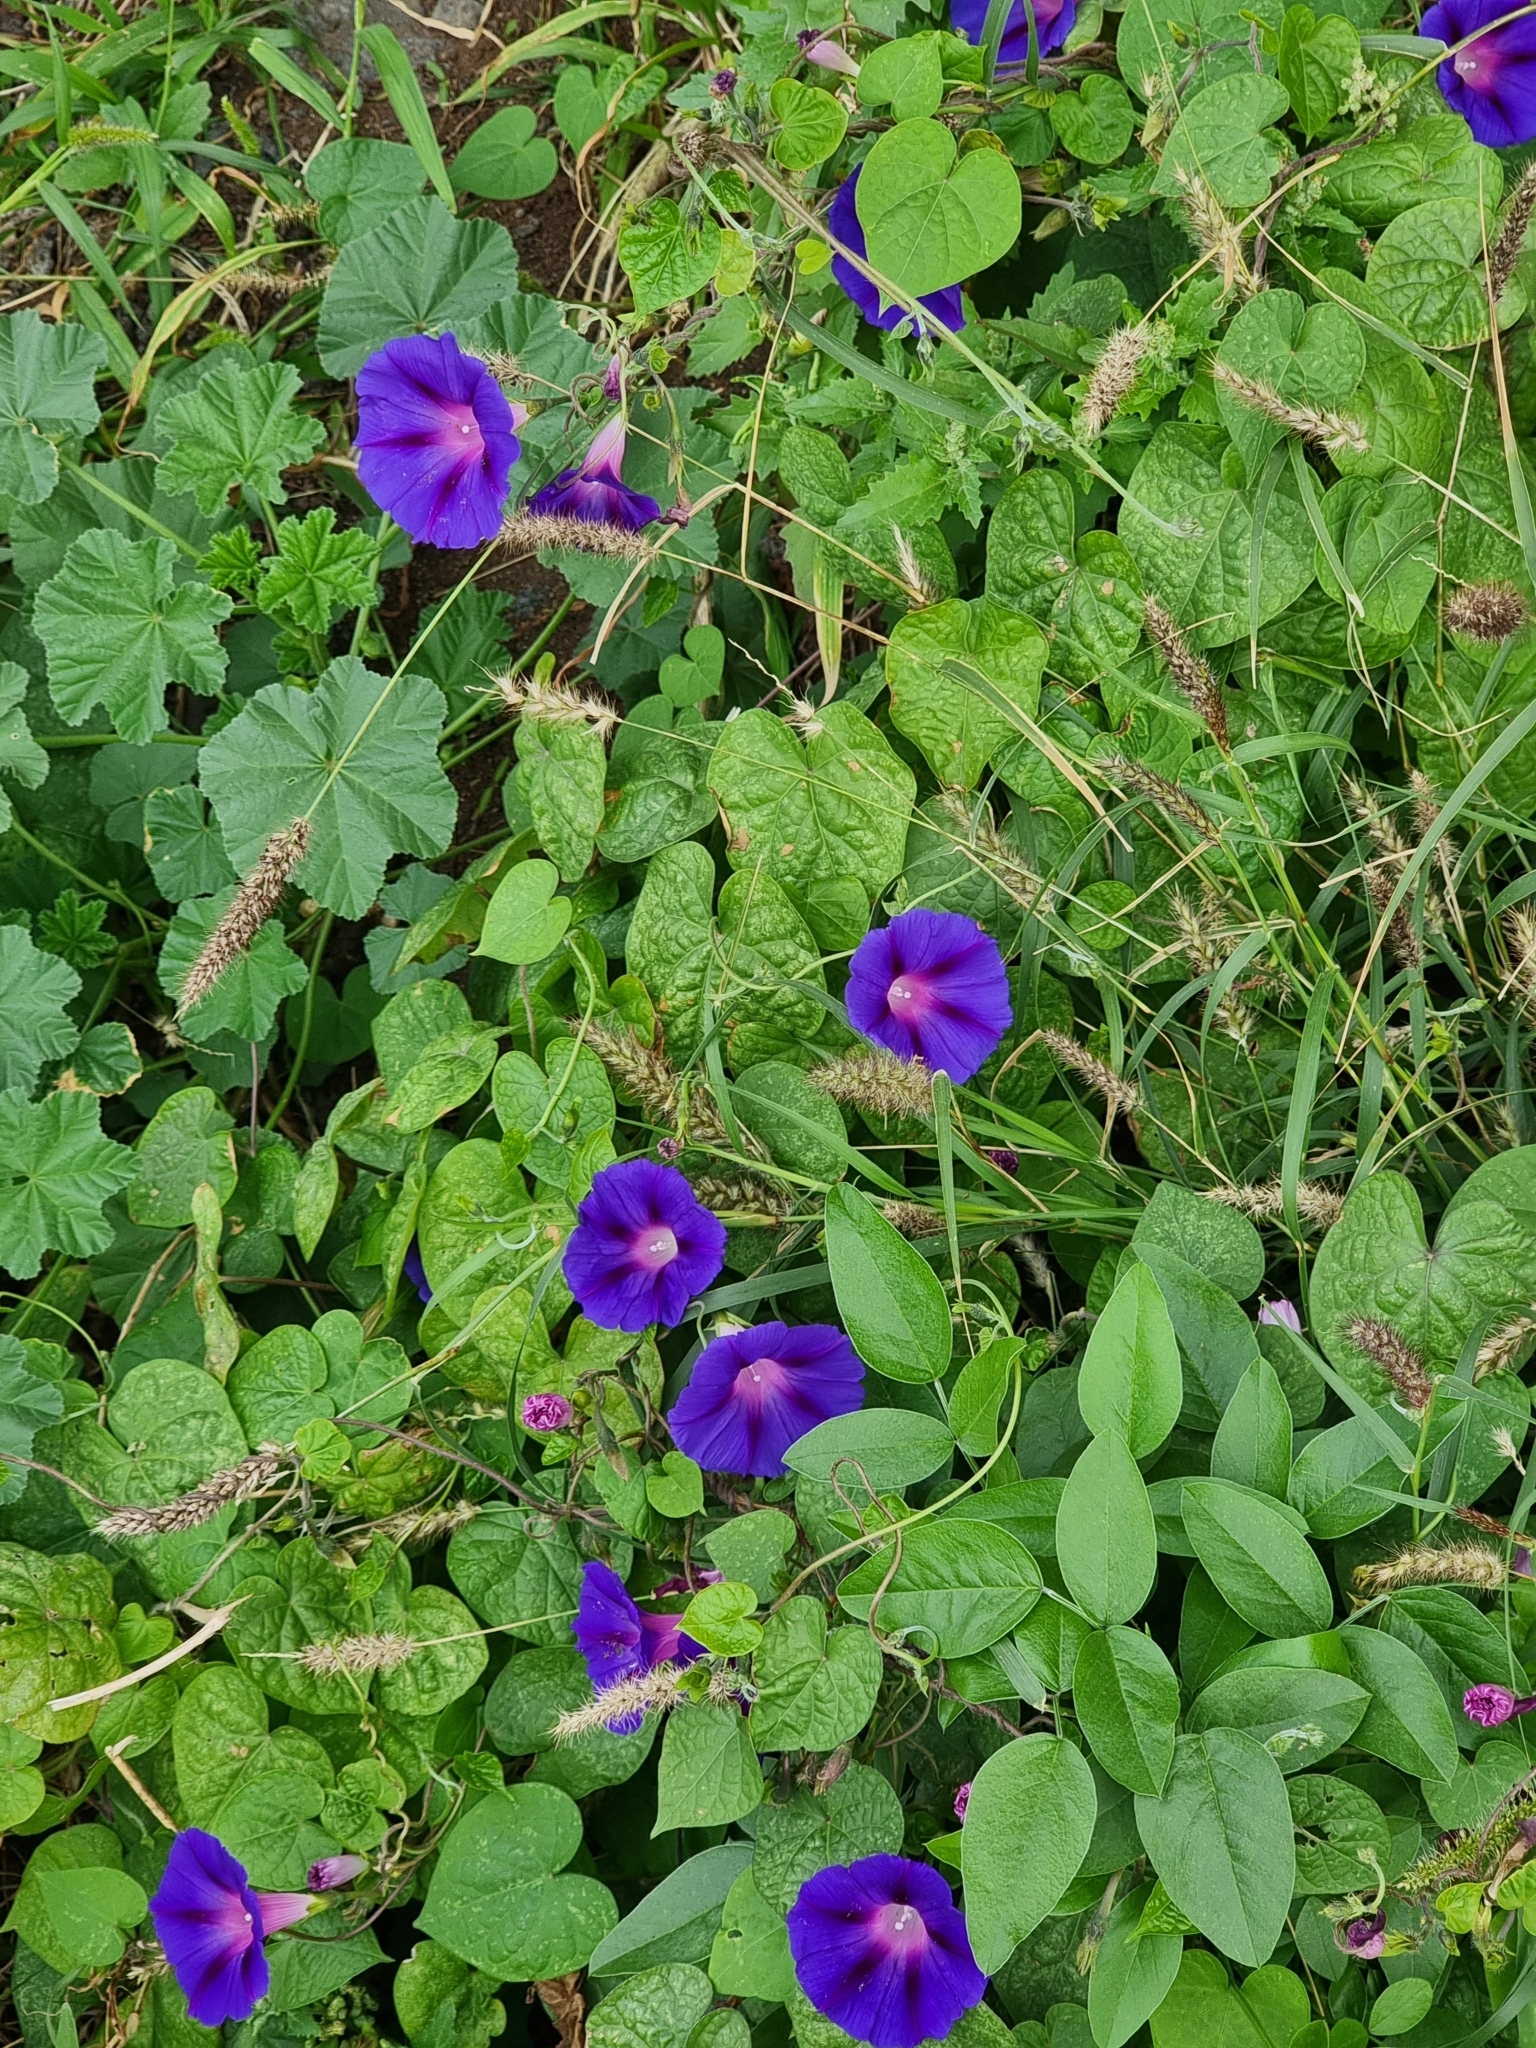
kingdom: Plantae
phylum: Tracheophyta
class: Magnoliopsida
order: Solanales
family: Convolvulaceae
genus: Ipomoea
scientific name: Ipomoea purpurea
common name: Common morning-glory
